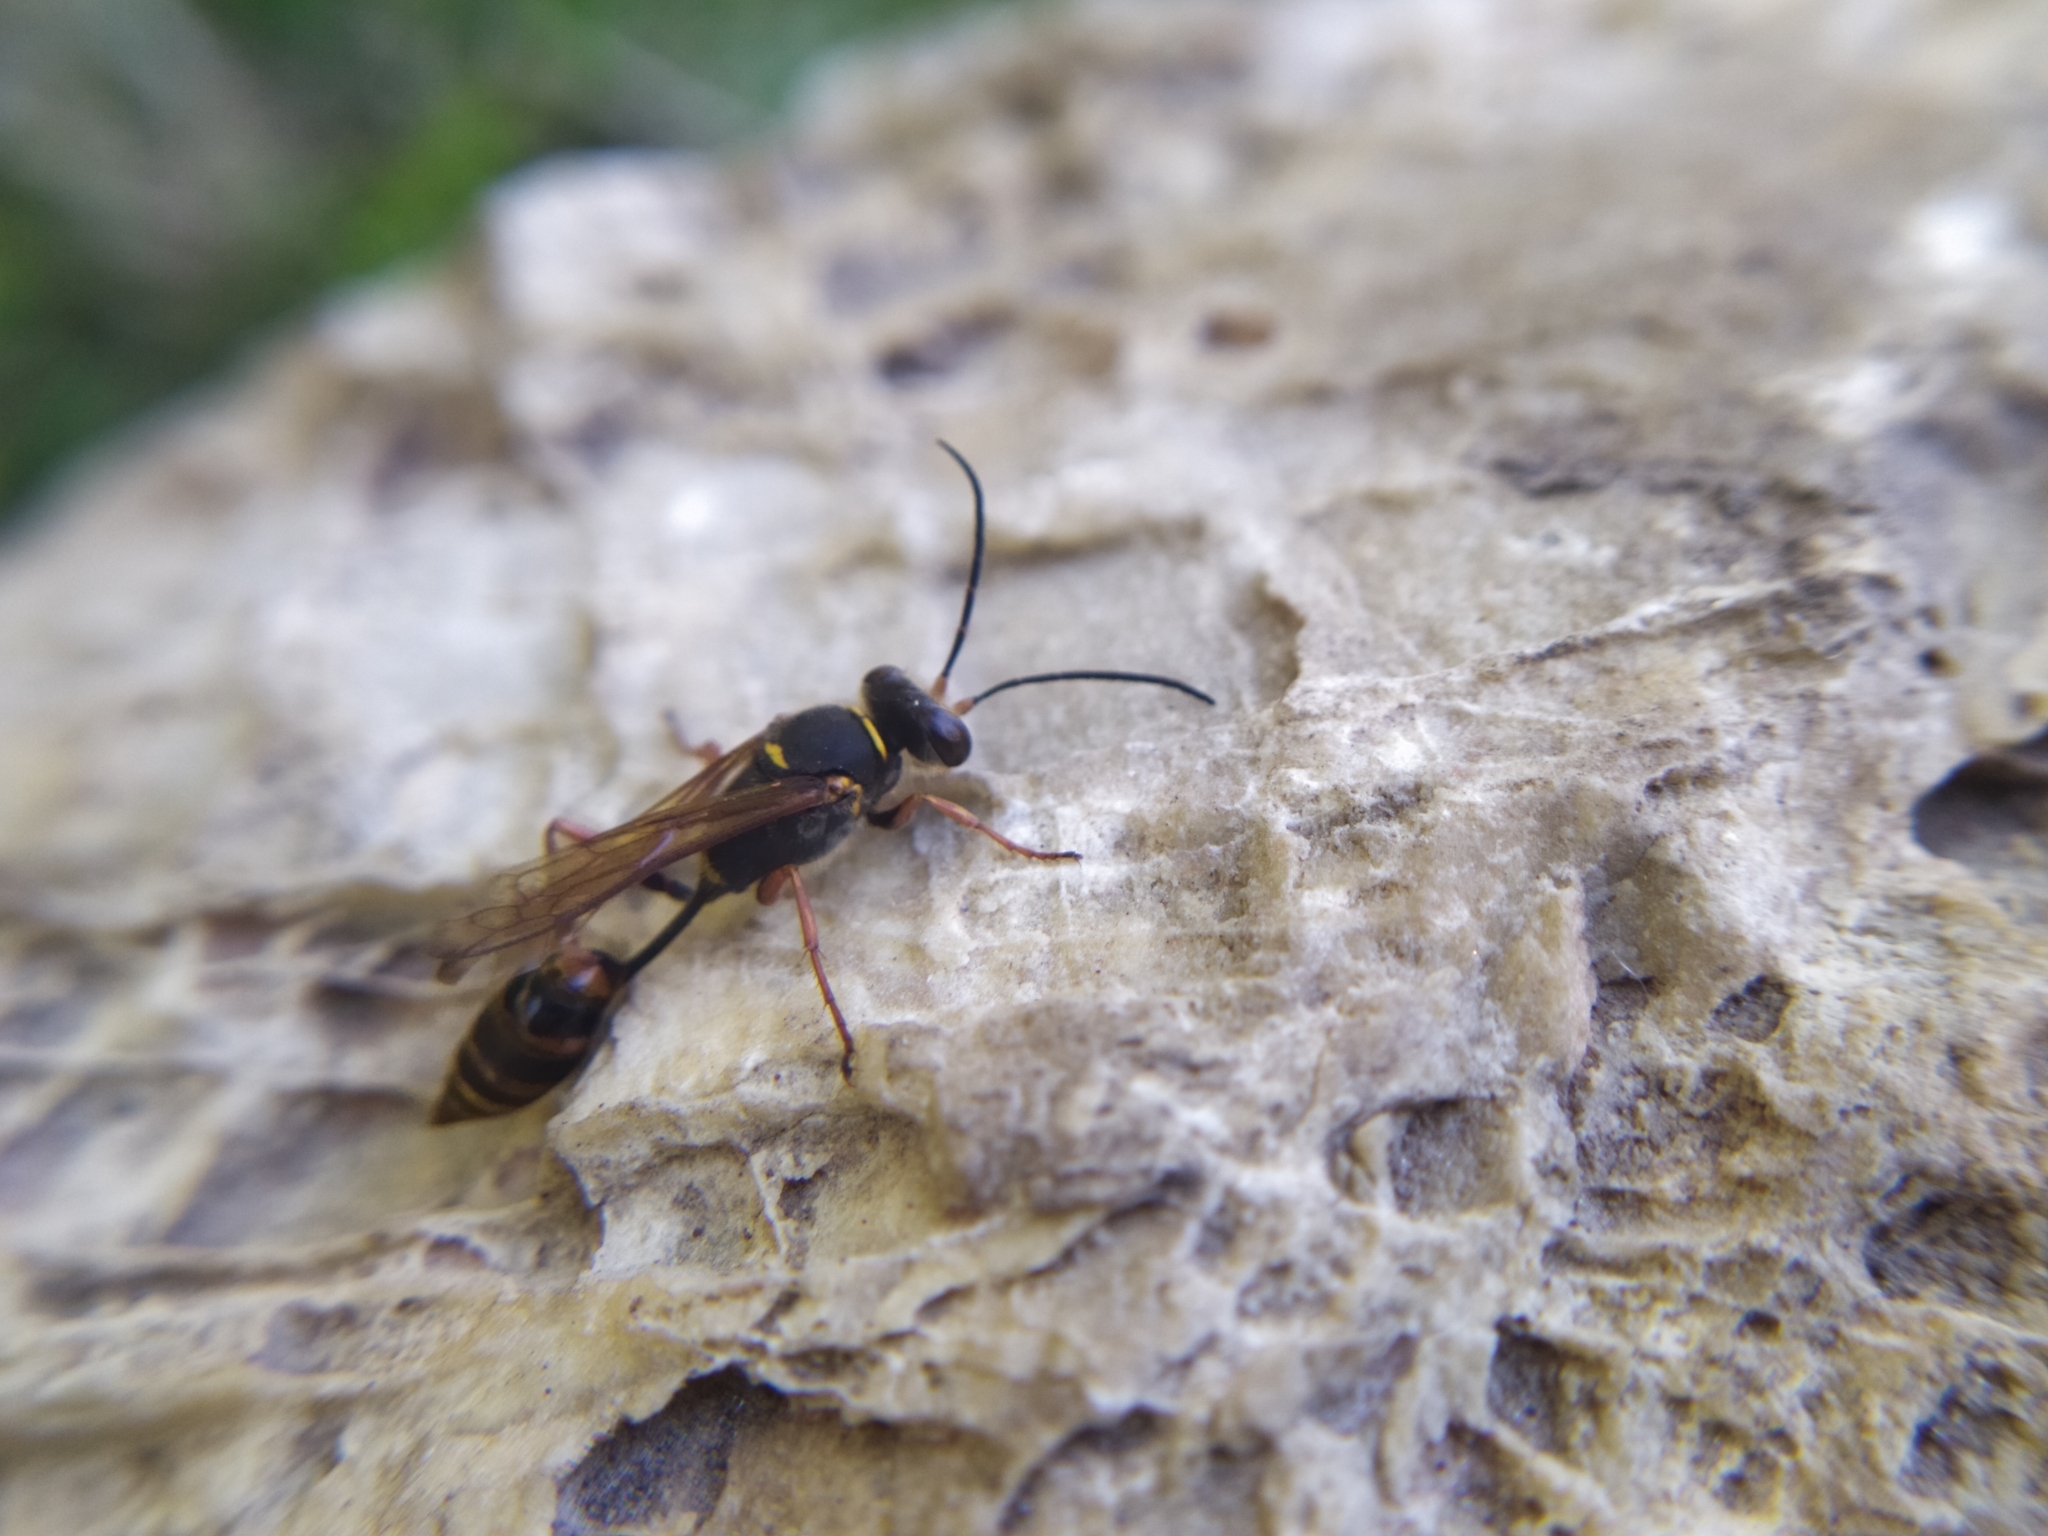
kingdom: Animalia
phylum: Arthropoda
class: Insecta
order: Hymenoptera
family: Sphecidae
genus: Sceliphron
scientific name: Sceliphron curvatum
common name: Pèlopèe
